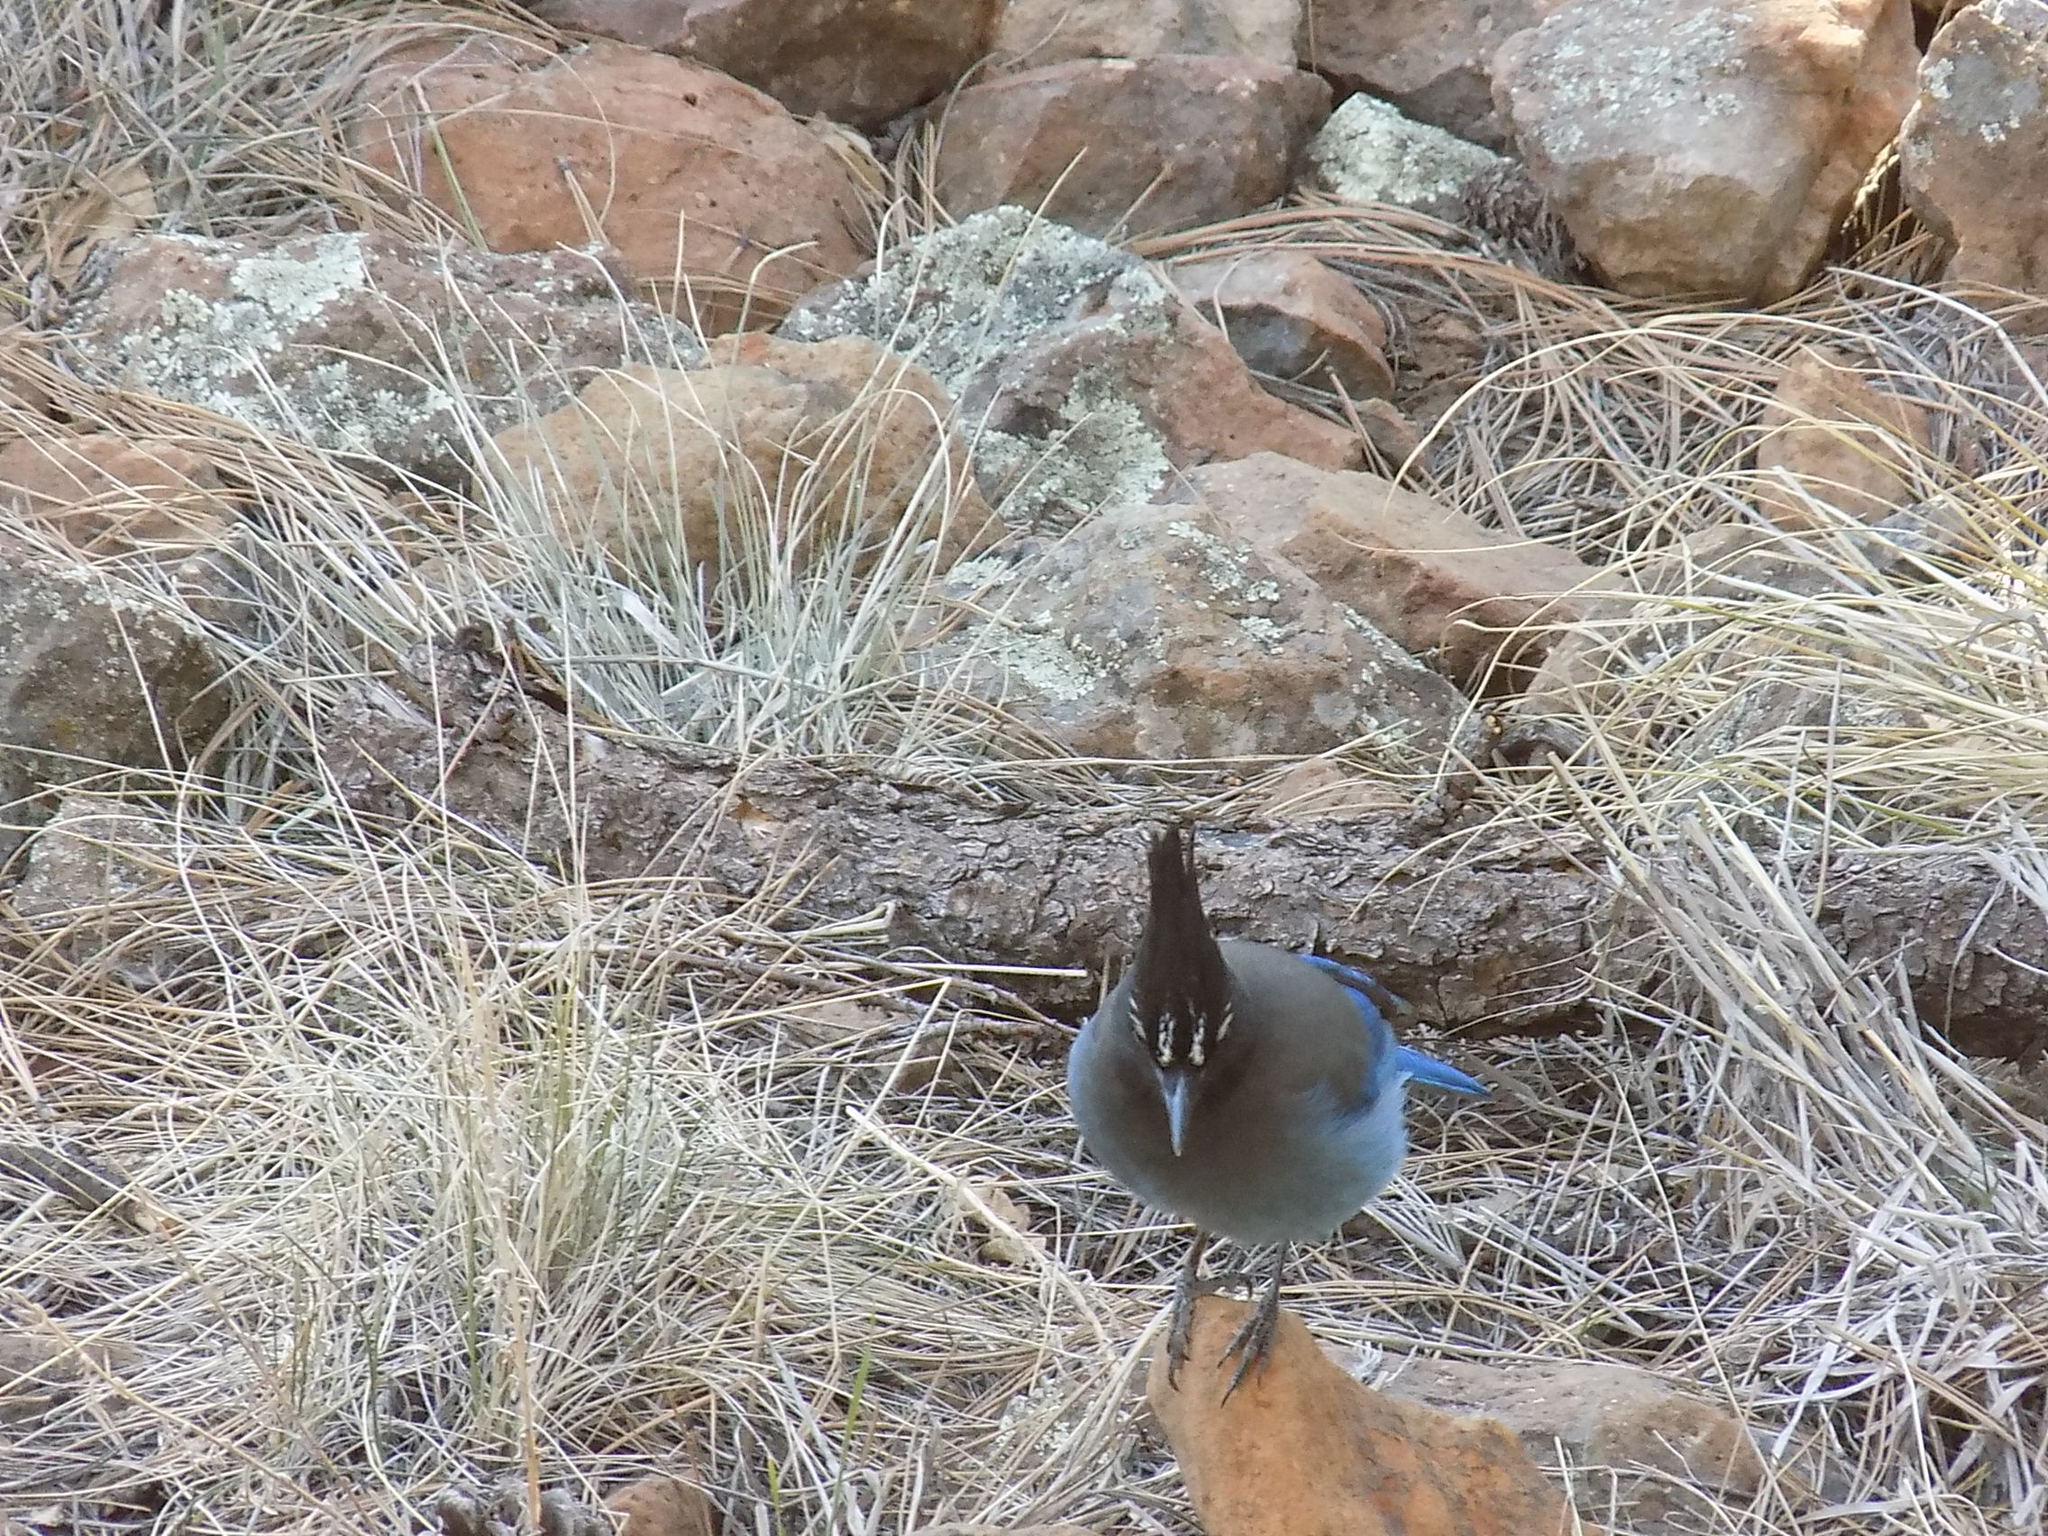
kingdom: Animalia
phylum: Chordata
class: Aves
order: Passeriformes
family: Corvidae
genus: Cyanocitta
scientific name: Cyanocitta stelleri
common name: Steller's jay
